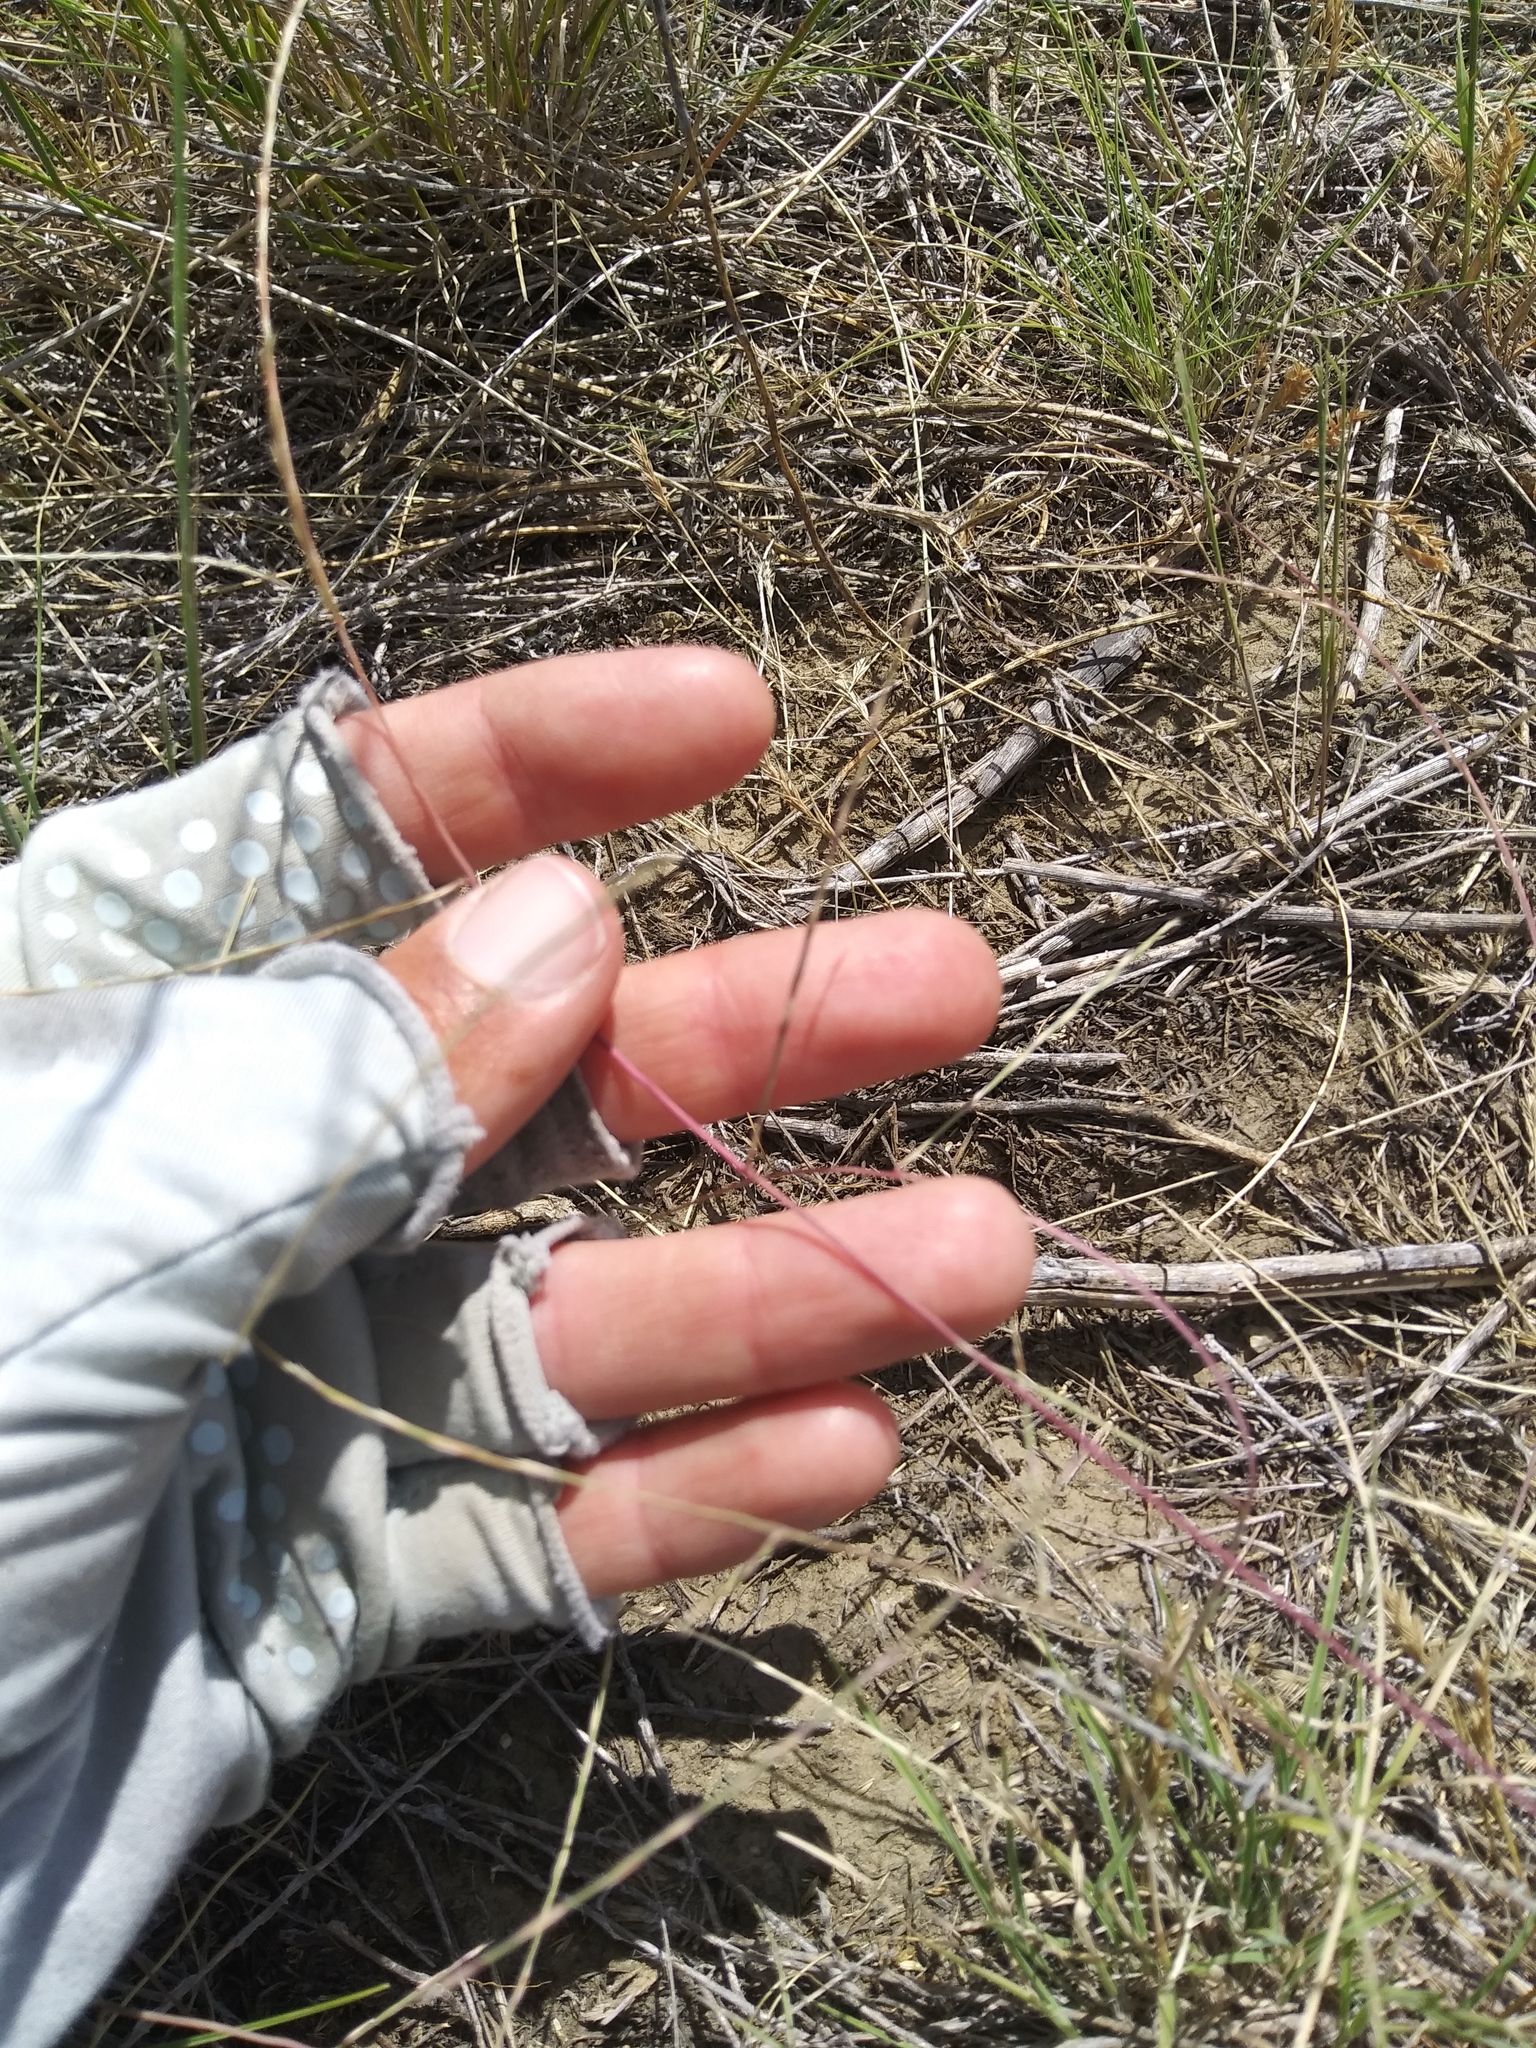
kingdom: Plantae
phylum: Tracheophyta
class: Liliopsida
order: Poales
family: Poaceae
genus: Muhlenbergia
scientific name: Muhlenbergia paniculata
